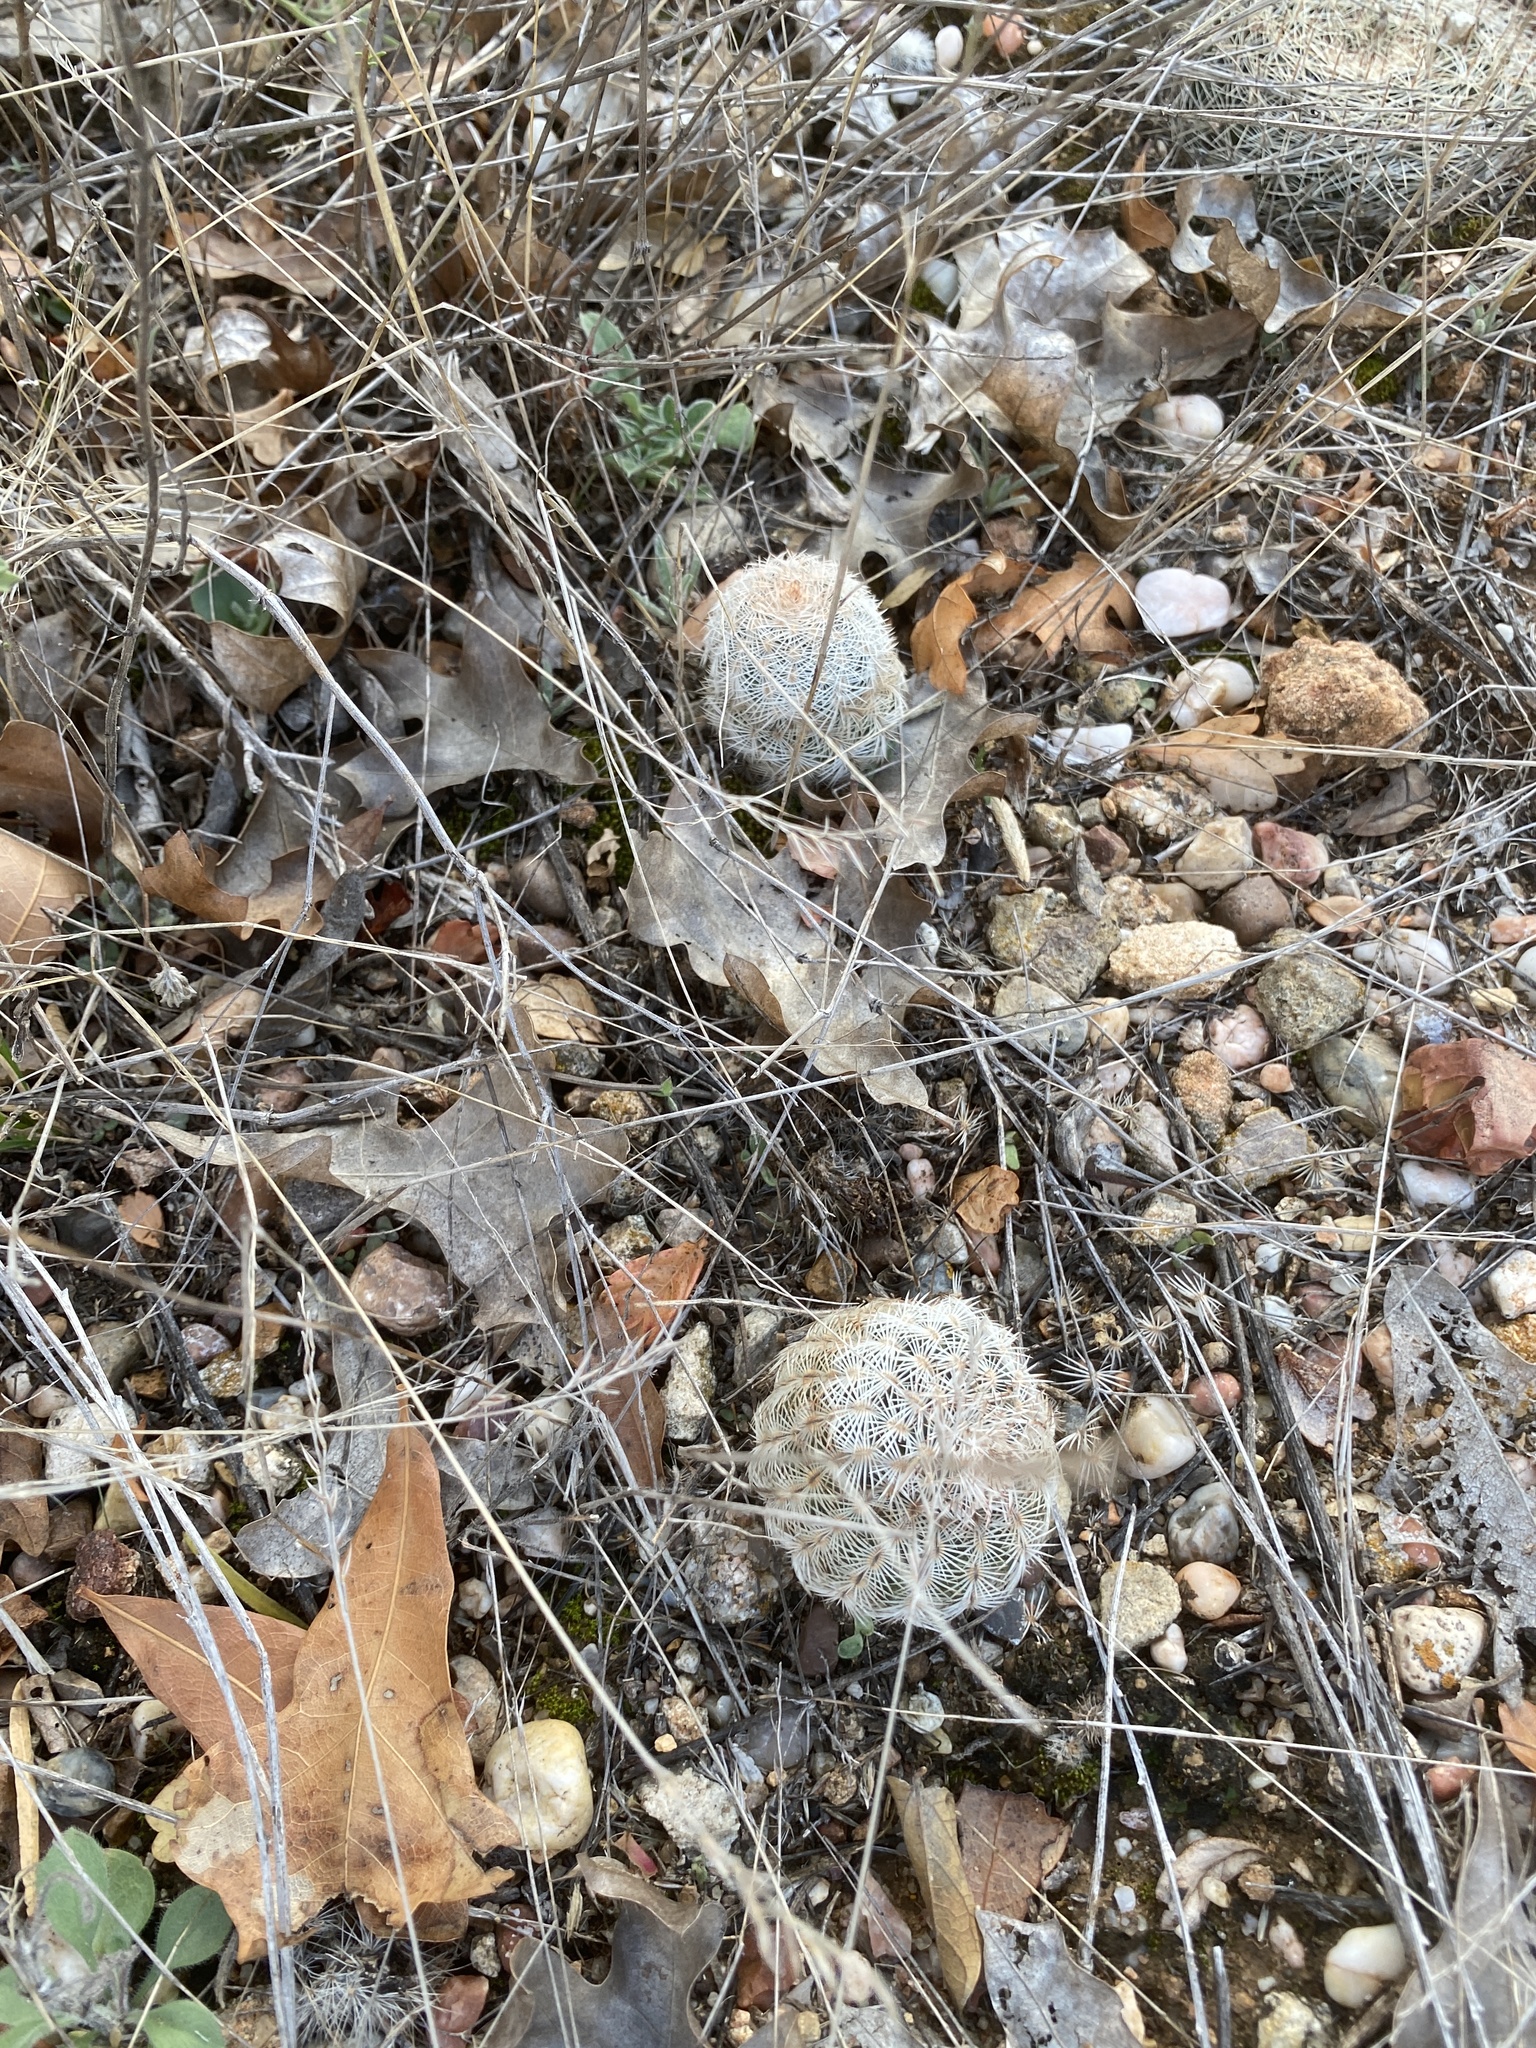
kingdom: Plantae
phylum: Tracheophyta
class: Magnoliopsida
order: Caryophyllales
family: Cactaceae
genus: Echinocereus
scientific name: Echinocereus reichenbachii
